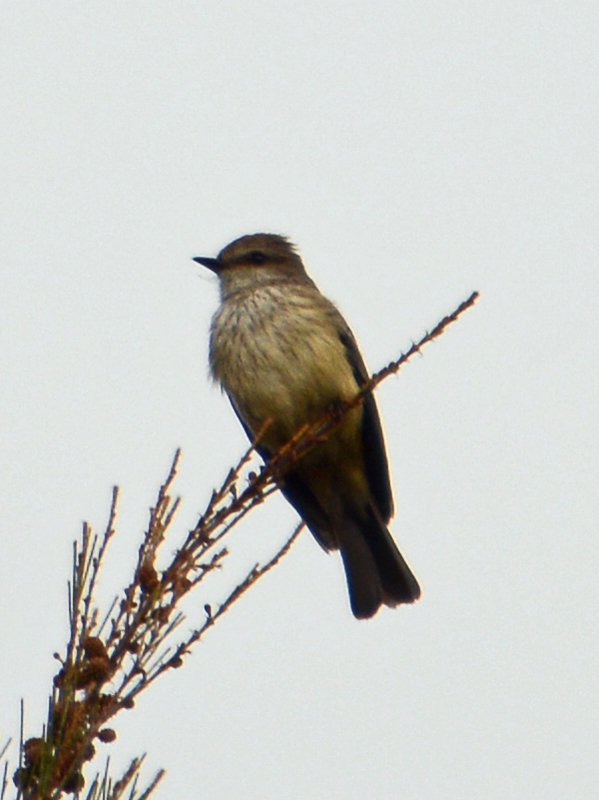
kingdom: Animalia
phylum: Chordata
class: Aves
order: Passeriformes
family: Tyrannidae
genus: Pyrocephalus
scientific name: Pyrocephalus rubinus
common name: Vermilion flycatcher
